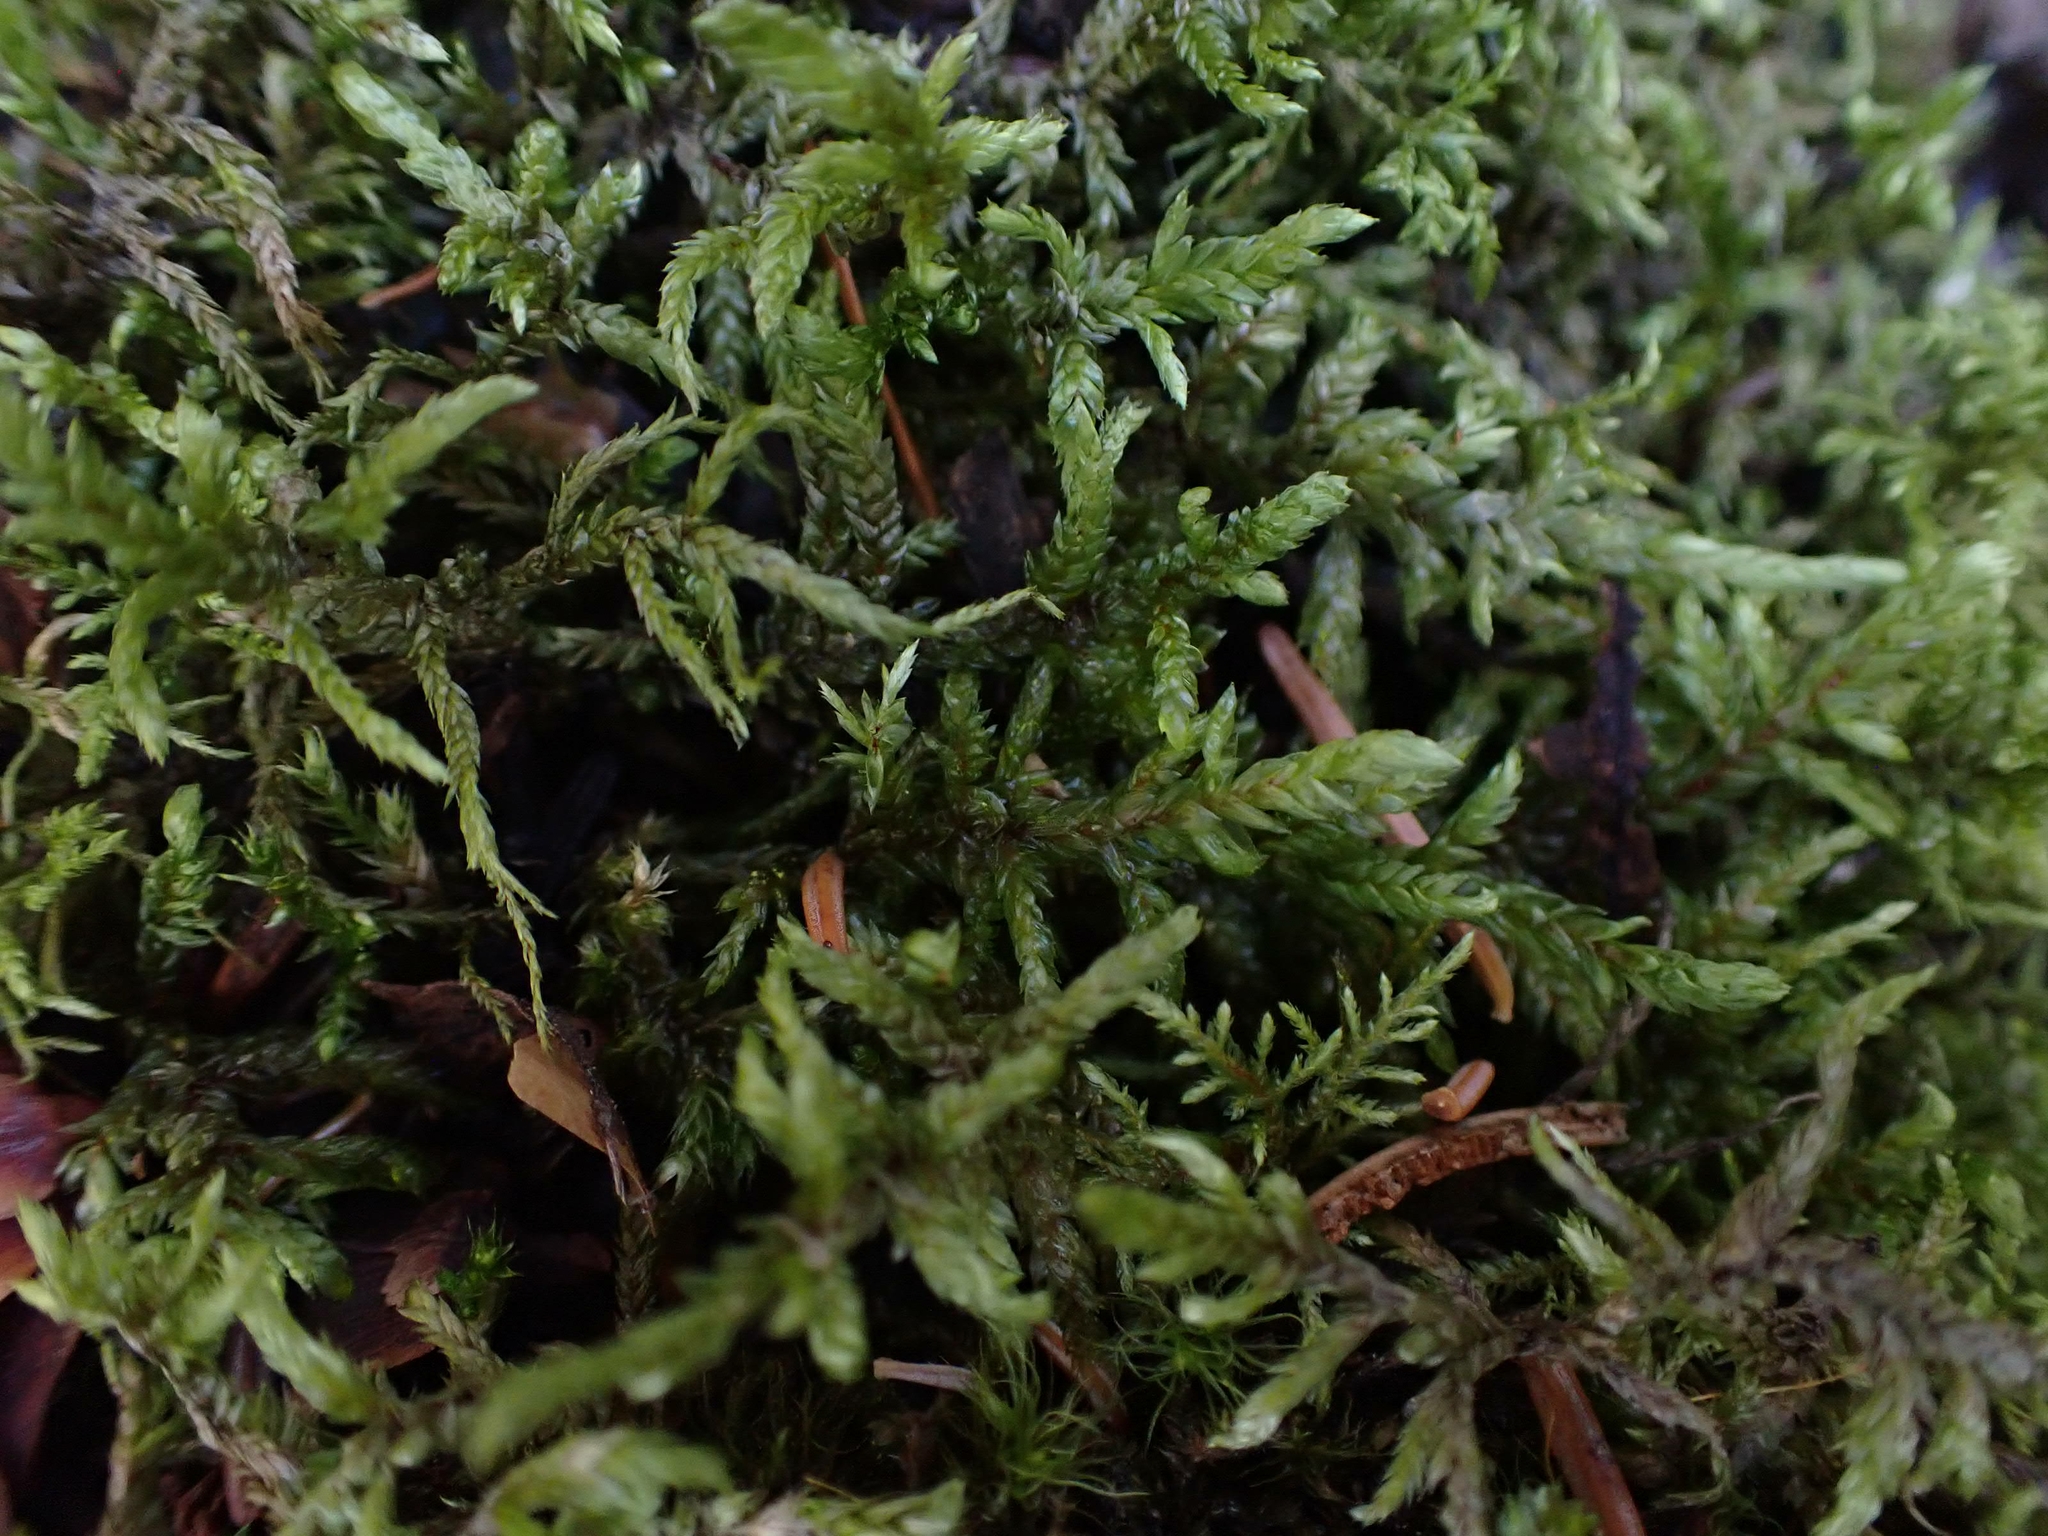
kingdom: Plantae
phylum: Bryophyta
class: Bryopsida
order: Hypnales
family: Hylocomiaceae
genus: Pleurozium
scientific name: Pleurozium schreberi
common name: Red-stemmed feather moss
